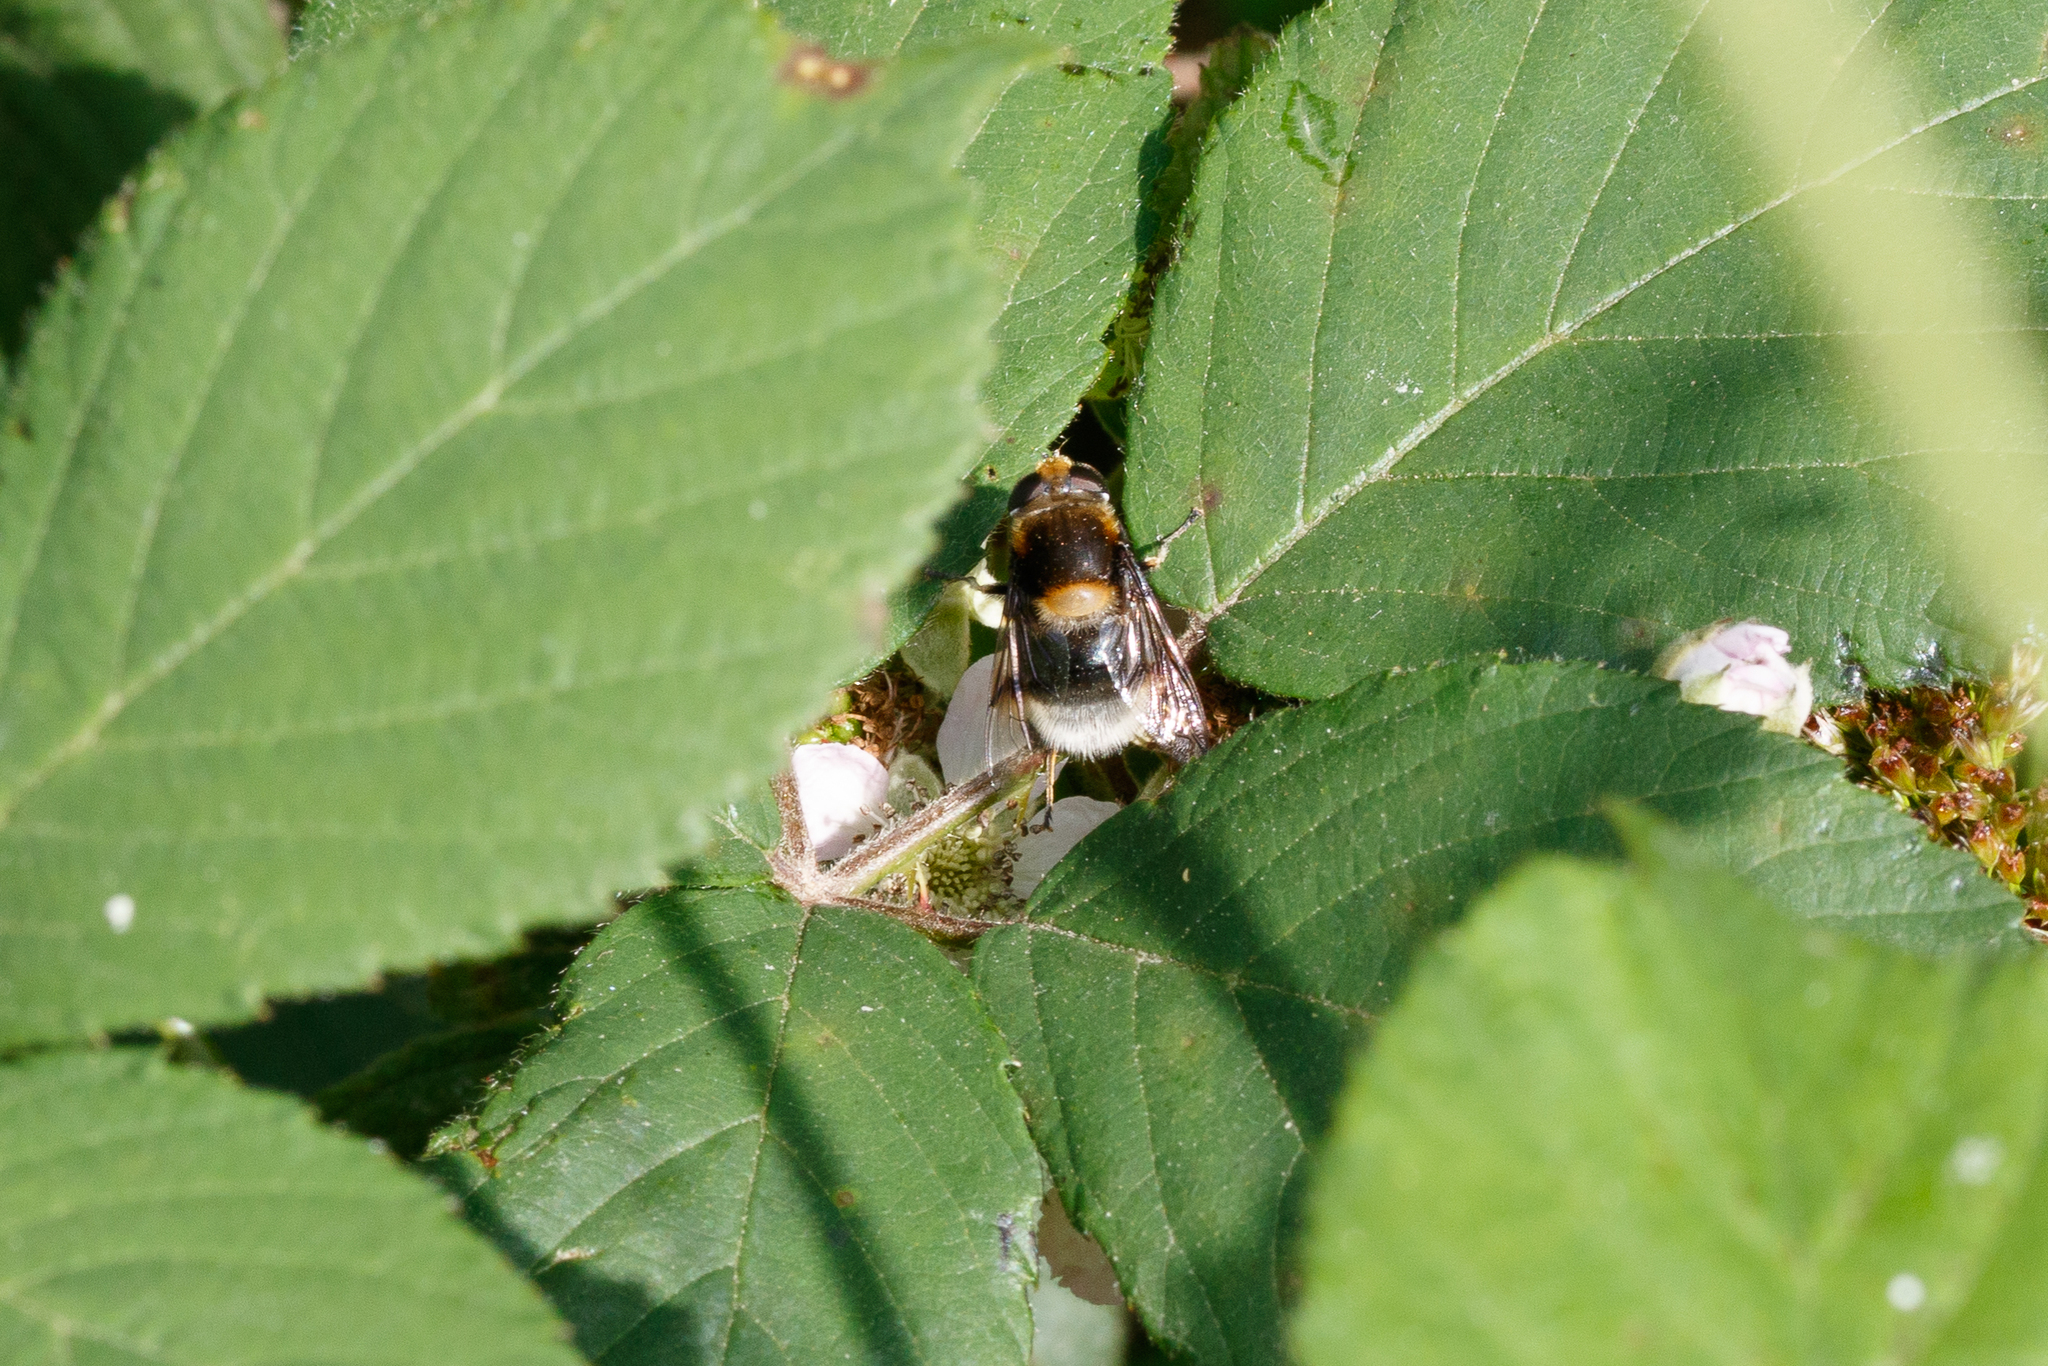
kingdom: Animalia
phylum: Arthropoda
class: Insecta
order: Diptera
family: Syrphidae
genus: Eristalis
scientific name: Eristalis intricaria
